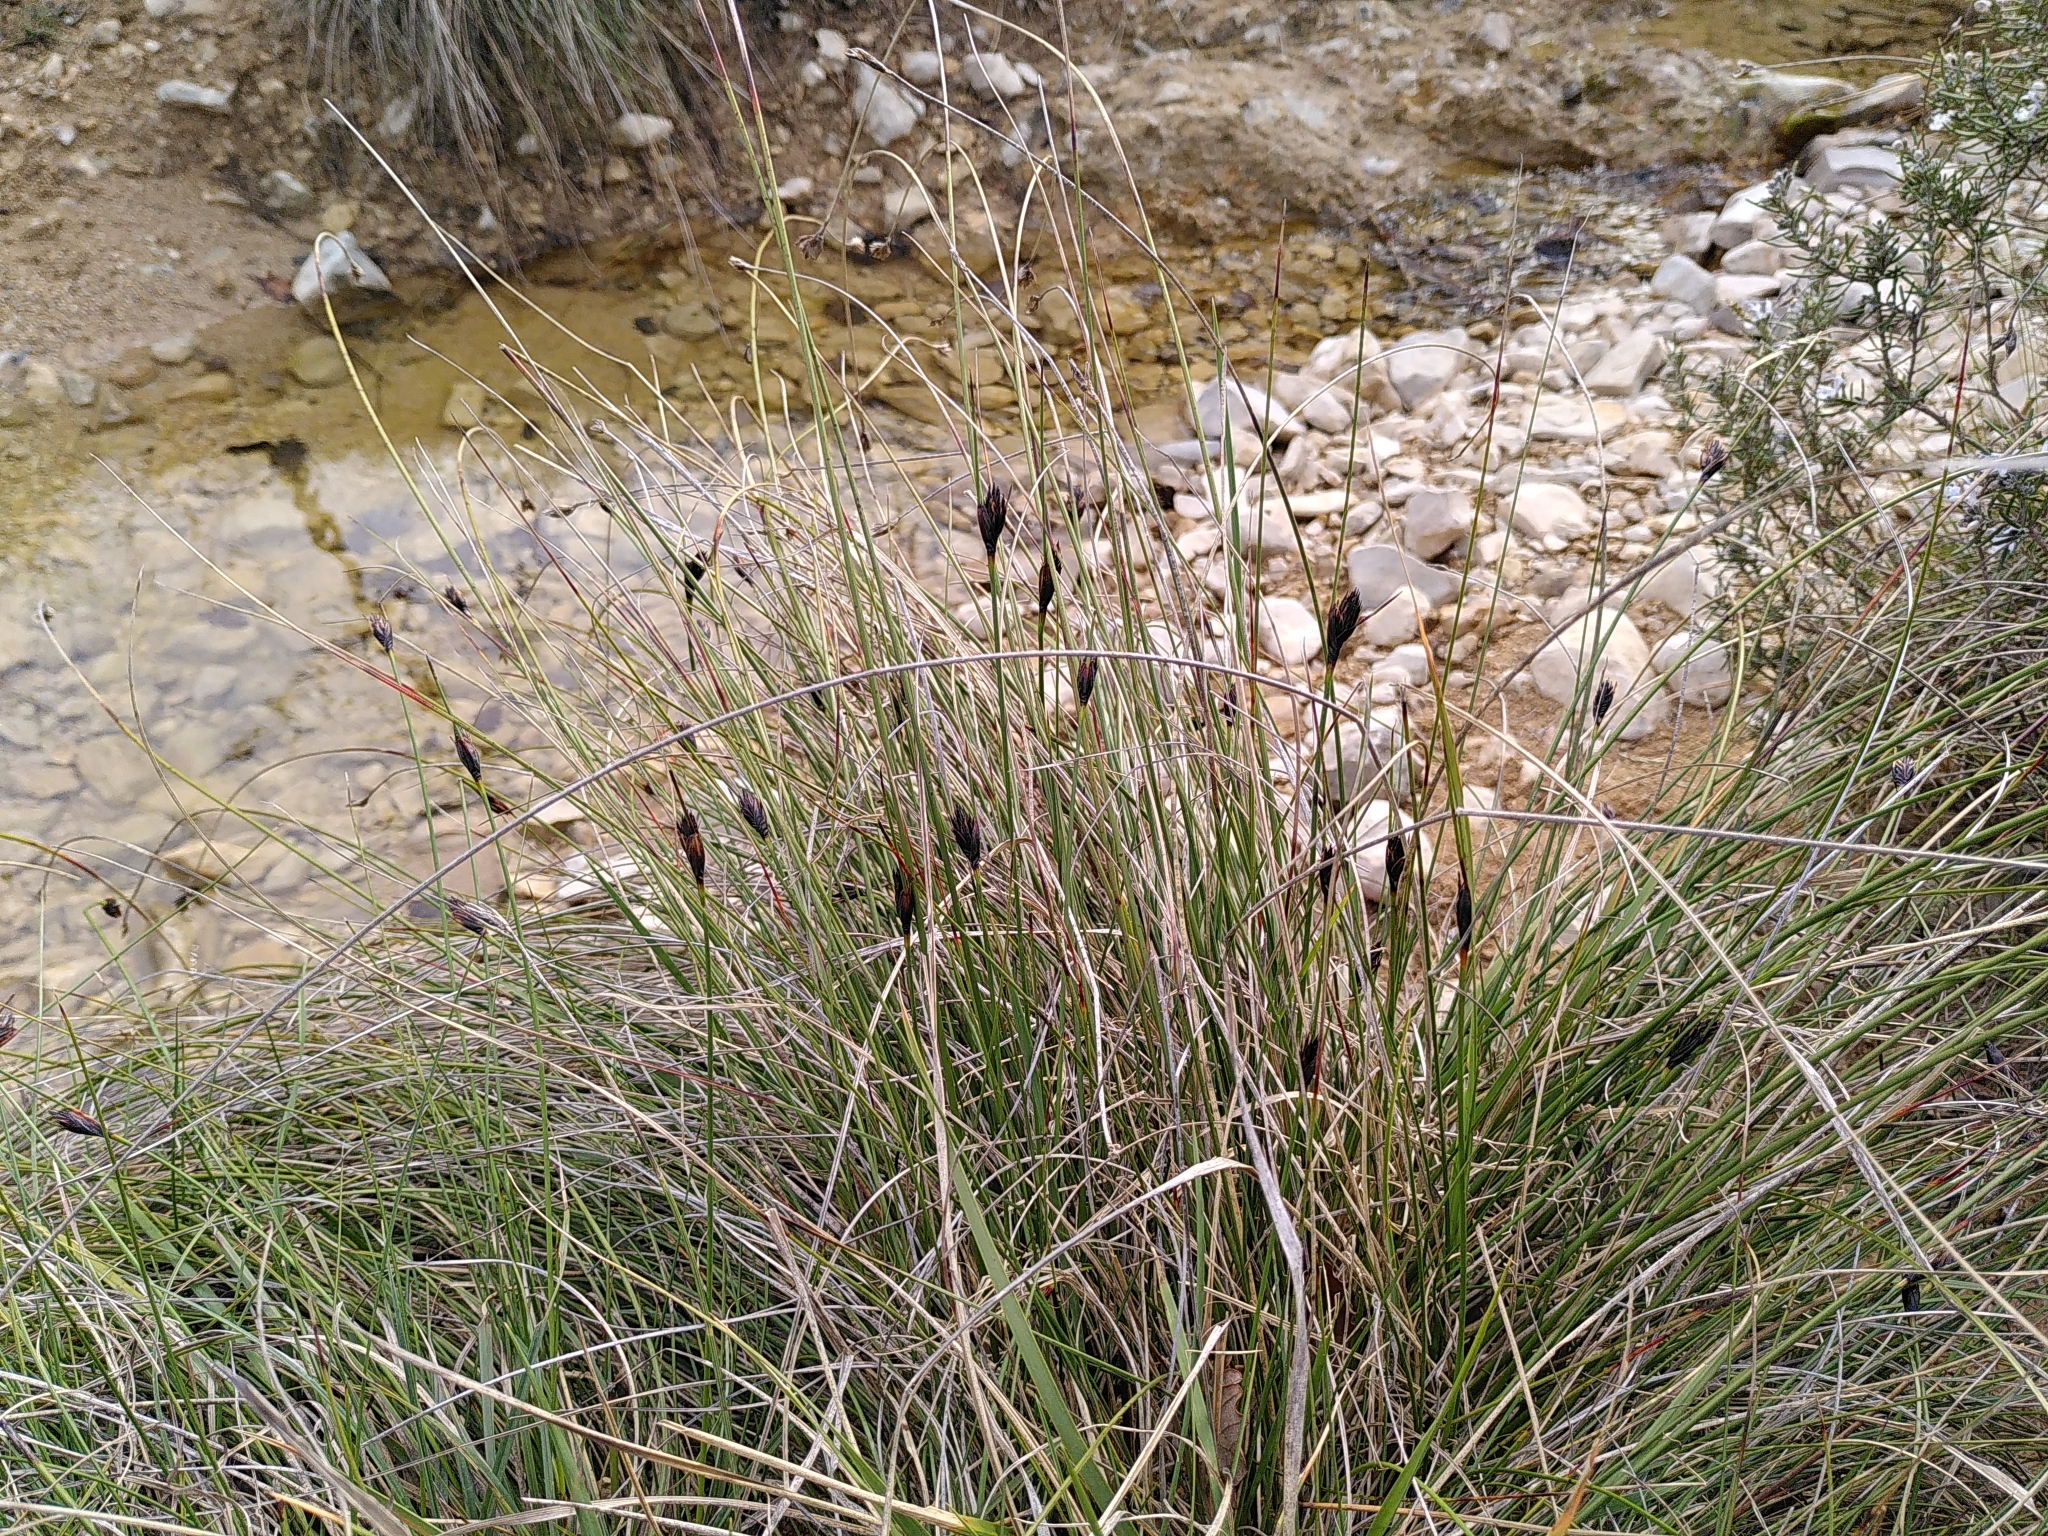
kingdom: Plantae
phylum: Tracheophyta
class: Liliopsida
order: Poales
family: Cyperaceae
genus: Schoenus
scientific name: Schoenus nigricans
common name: Black bog-rush
